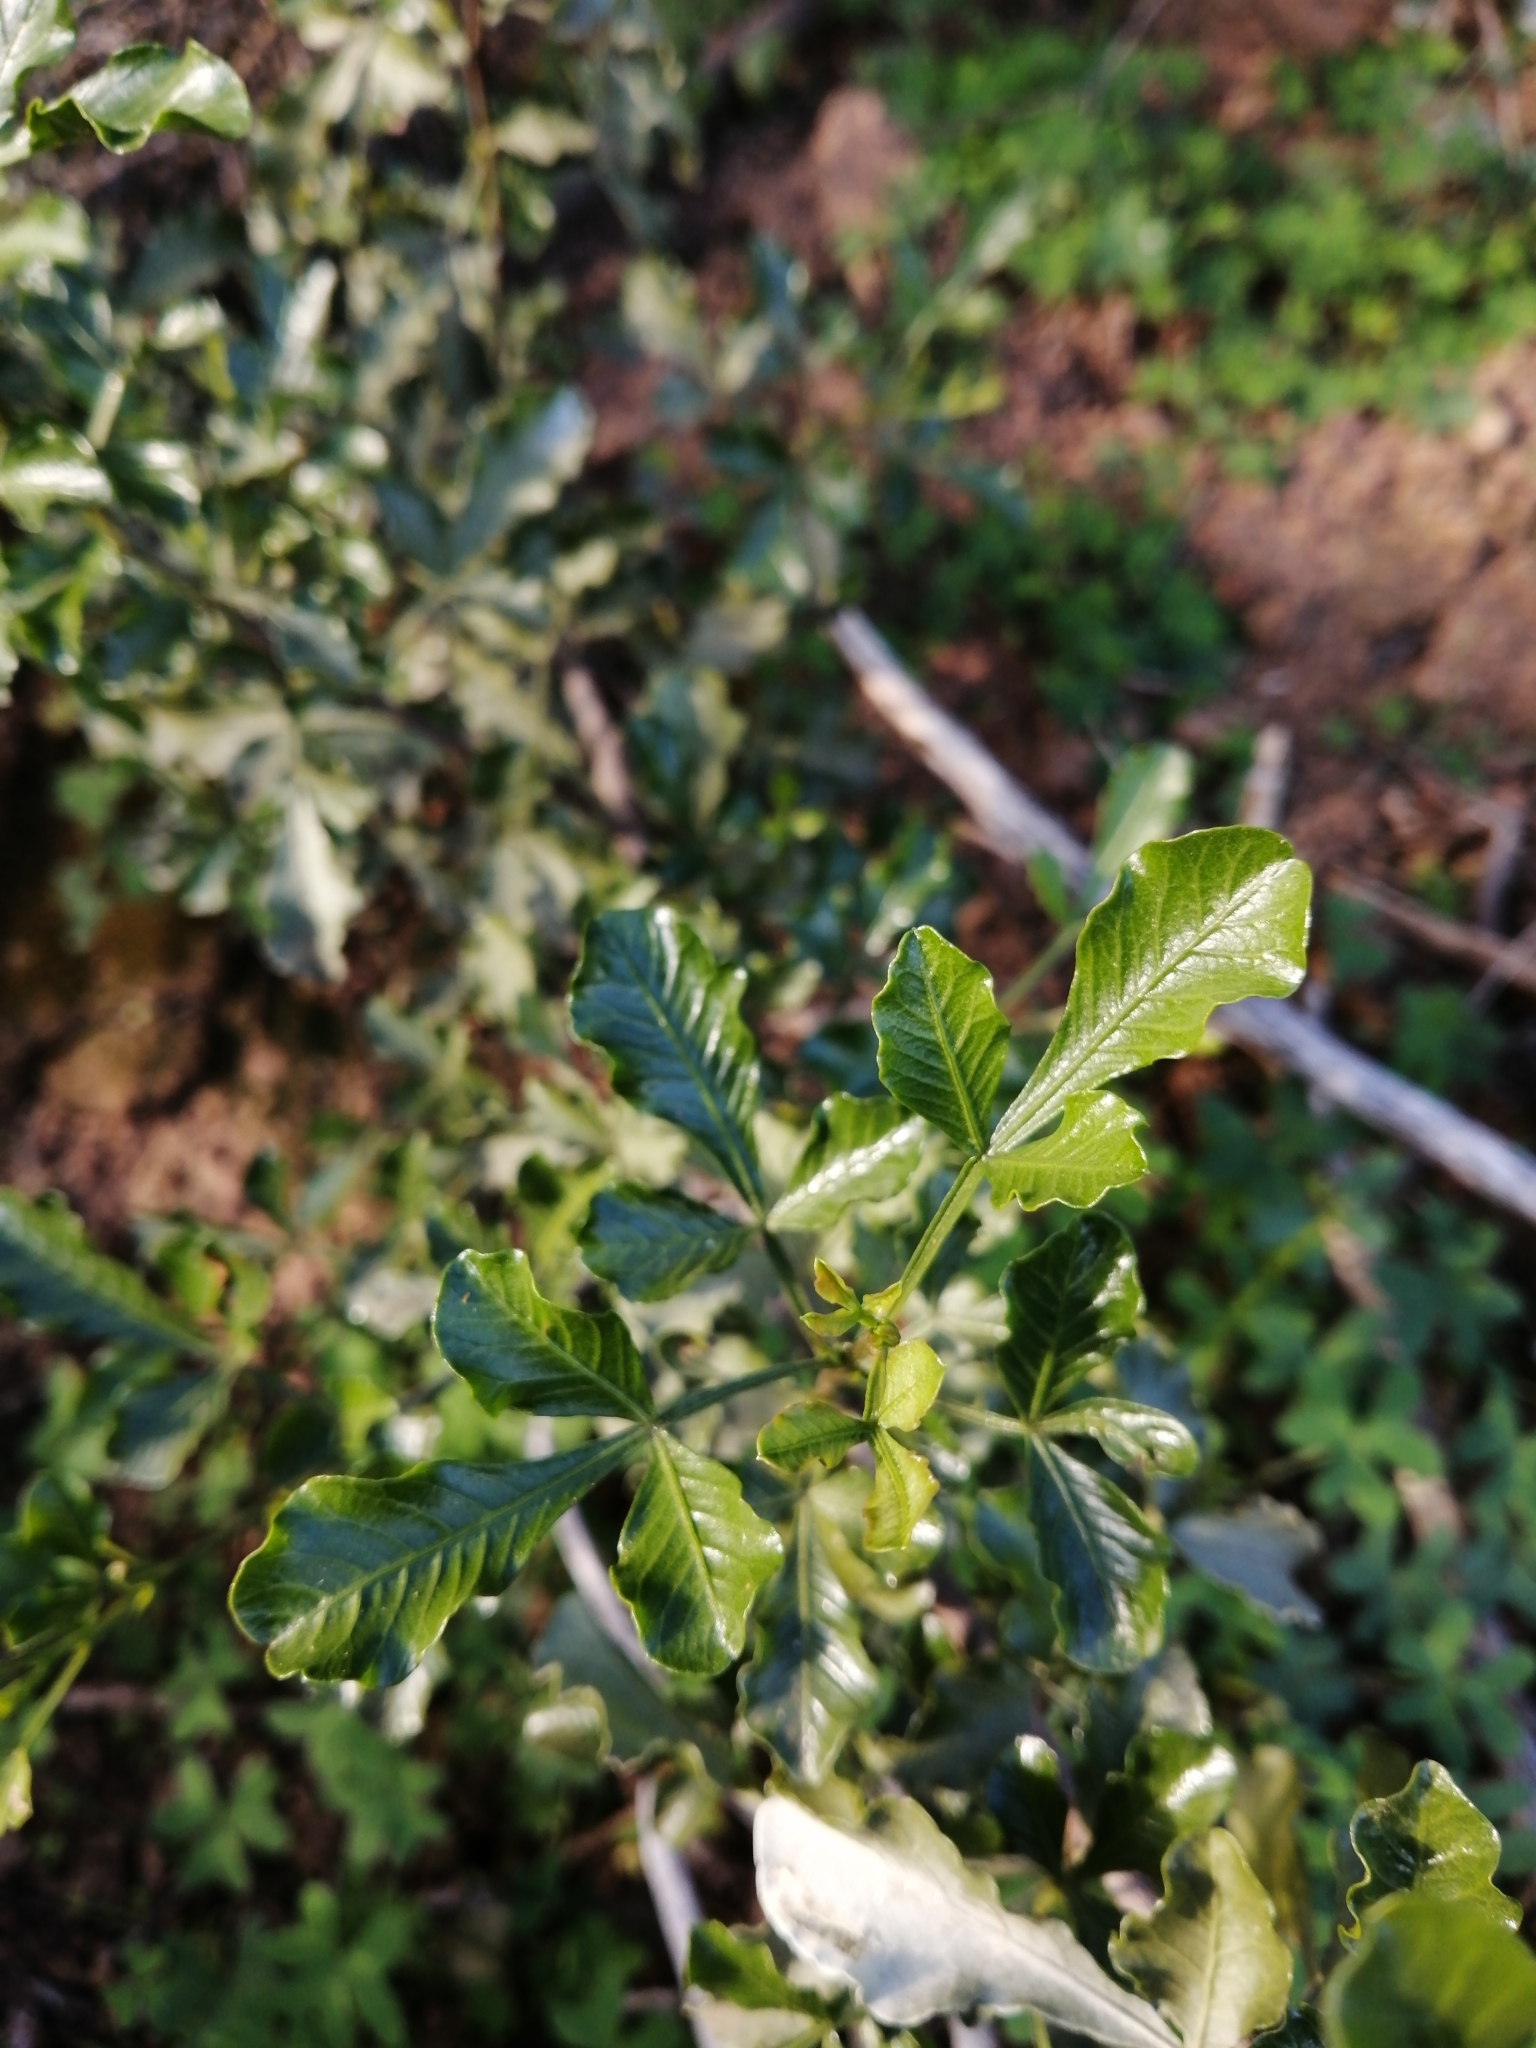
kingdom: Plantae
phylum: Tracheophyta
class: Magnoliopsida
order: Sapindales
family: Anacardiaceae
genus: Searsia
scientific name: Searsia undulata
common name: Namaqua kunibush
